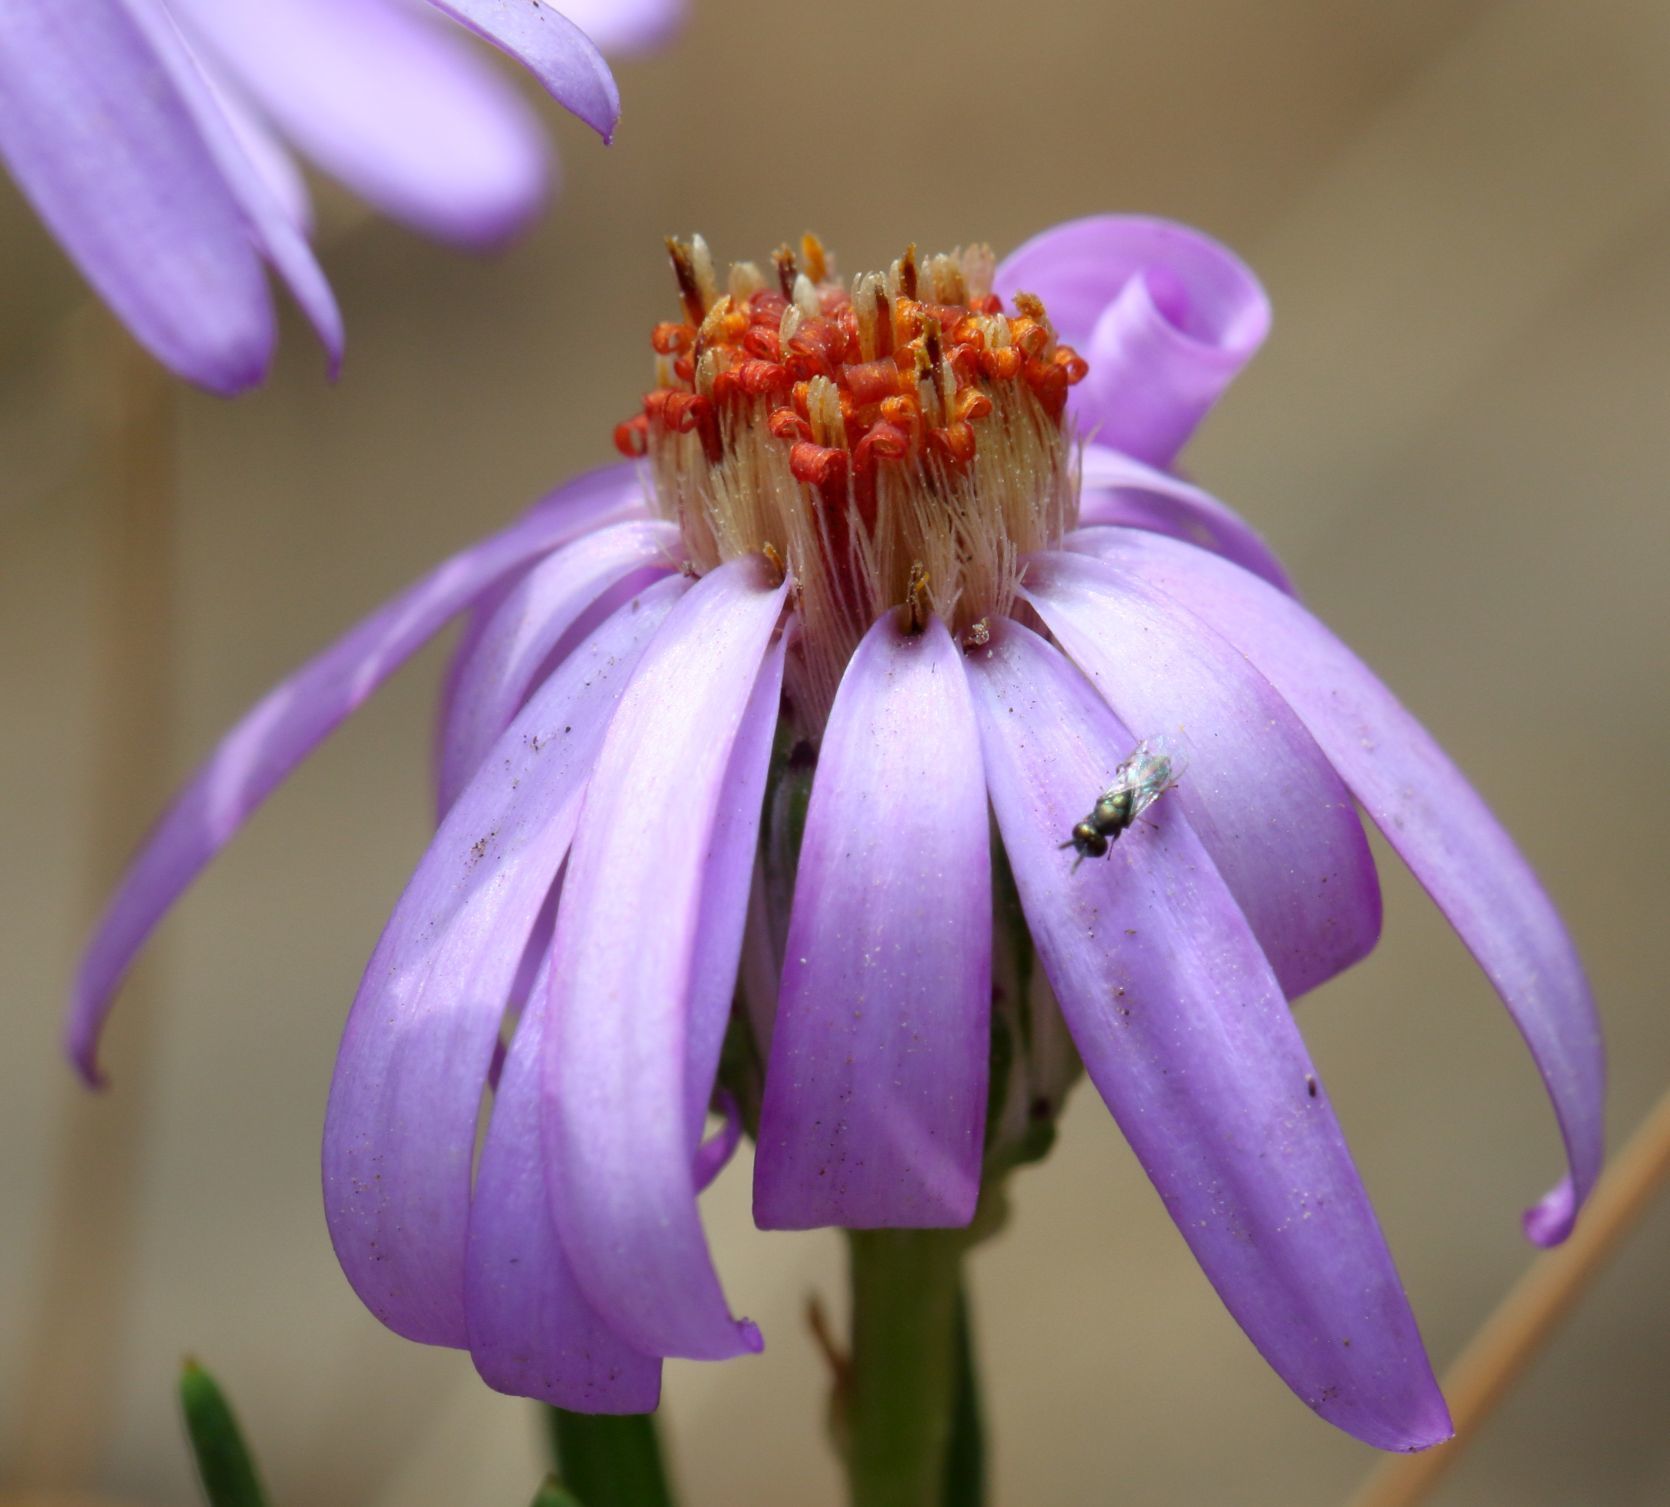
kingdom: Plantae
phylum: Tracheophyta
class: Magnoliopsida
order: Asterales
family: Asteraceae
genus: Felicia
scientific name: Felicia filifolia
